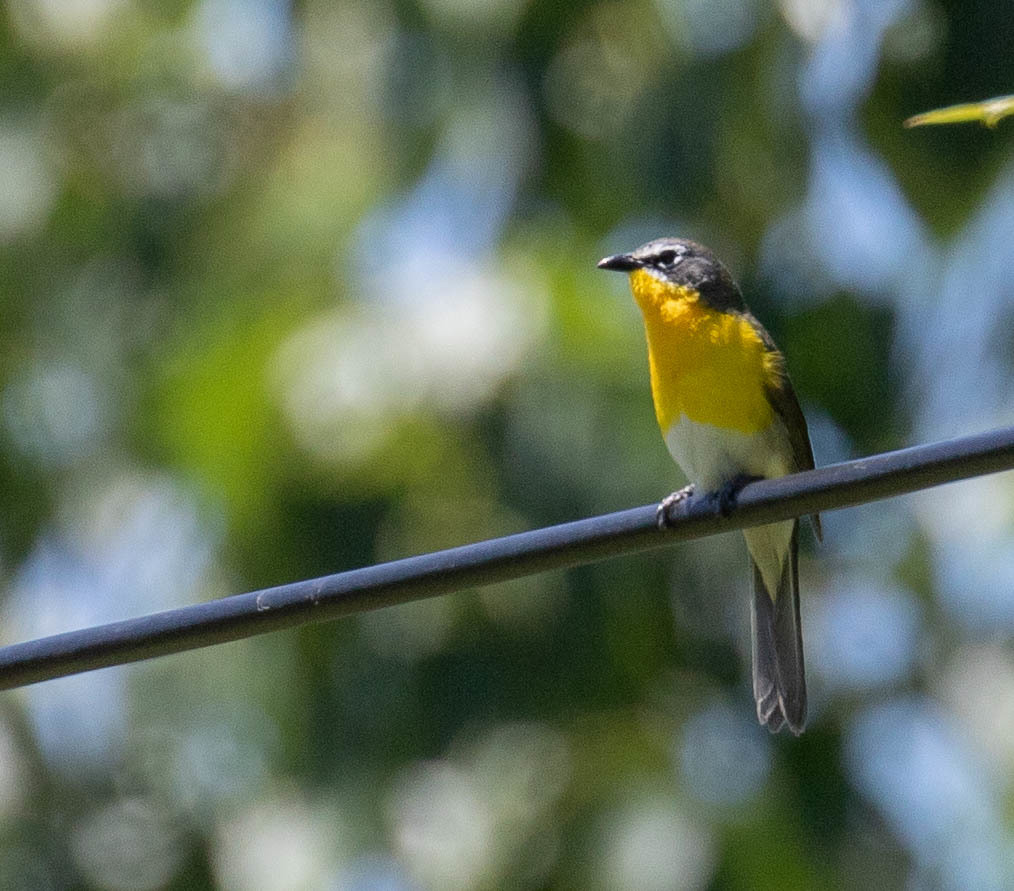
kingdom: Animalia
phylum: Chordata
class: Aves
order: Passeriformes
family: Parulidae
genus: Icteria
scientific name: Icteria virens
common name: Yellow-breasted chat
